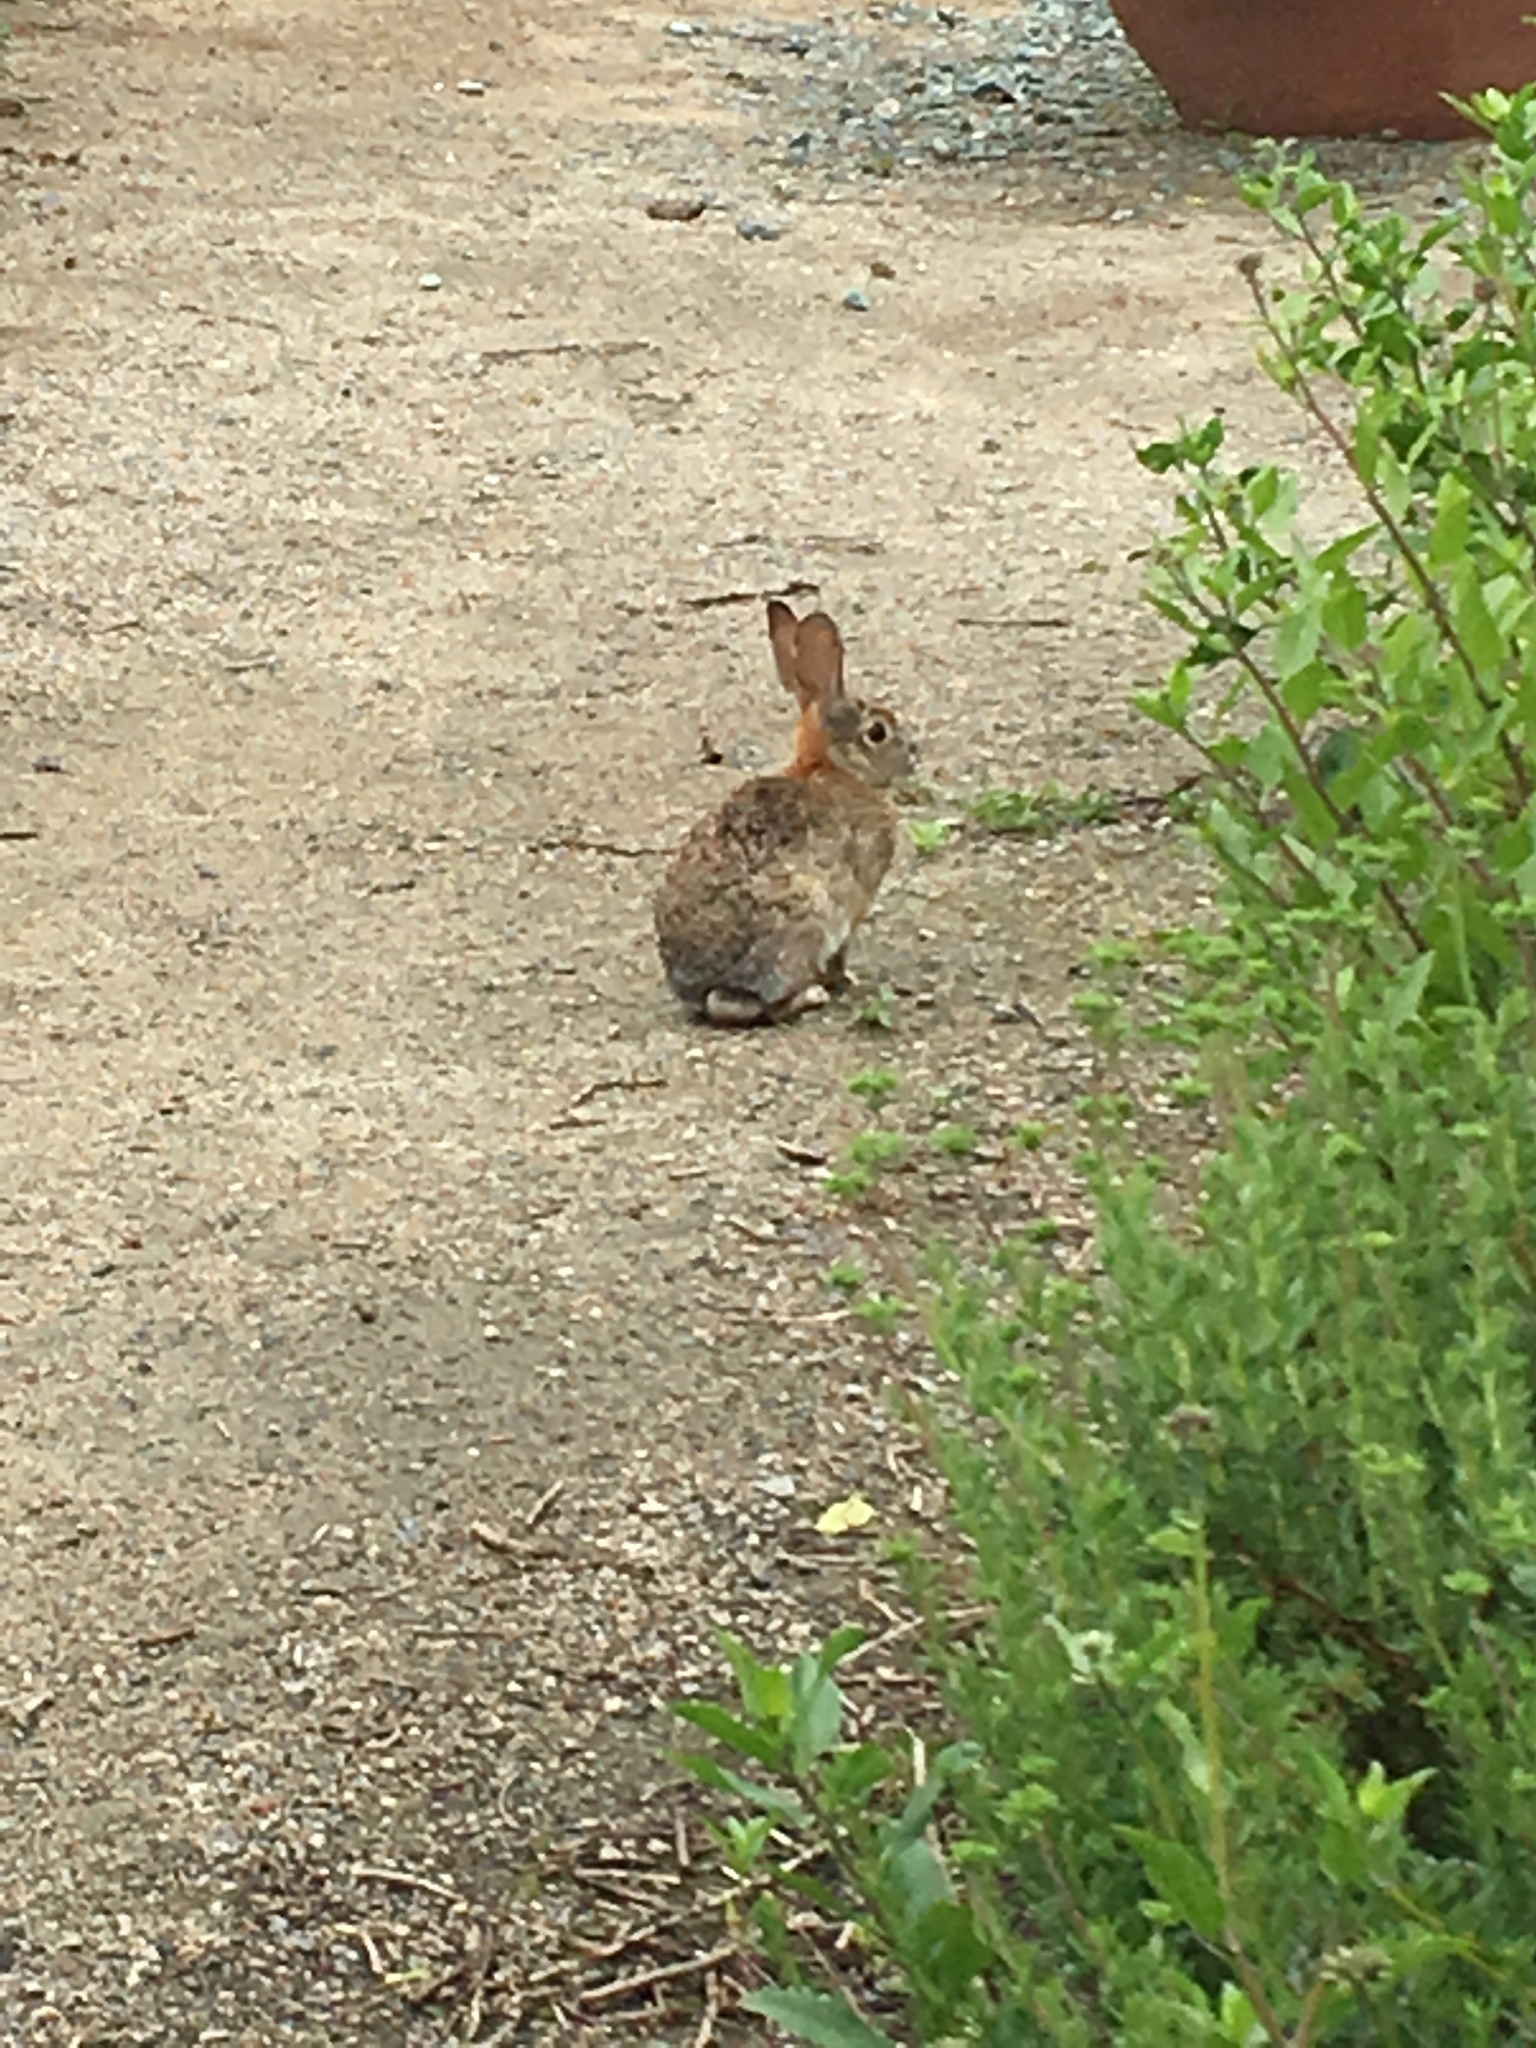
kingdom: Animalia
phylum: Chordata
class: Mammalia
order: Lagomorpha
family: Leporidae
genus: Sylvilagus
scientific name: Sylvilagus audubonii
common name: Desert cottontail
